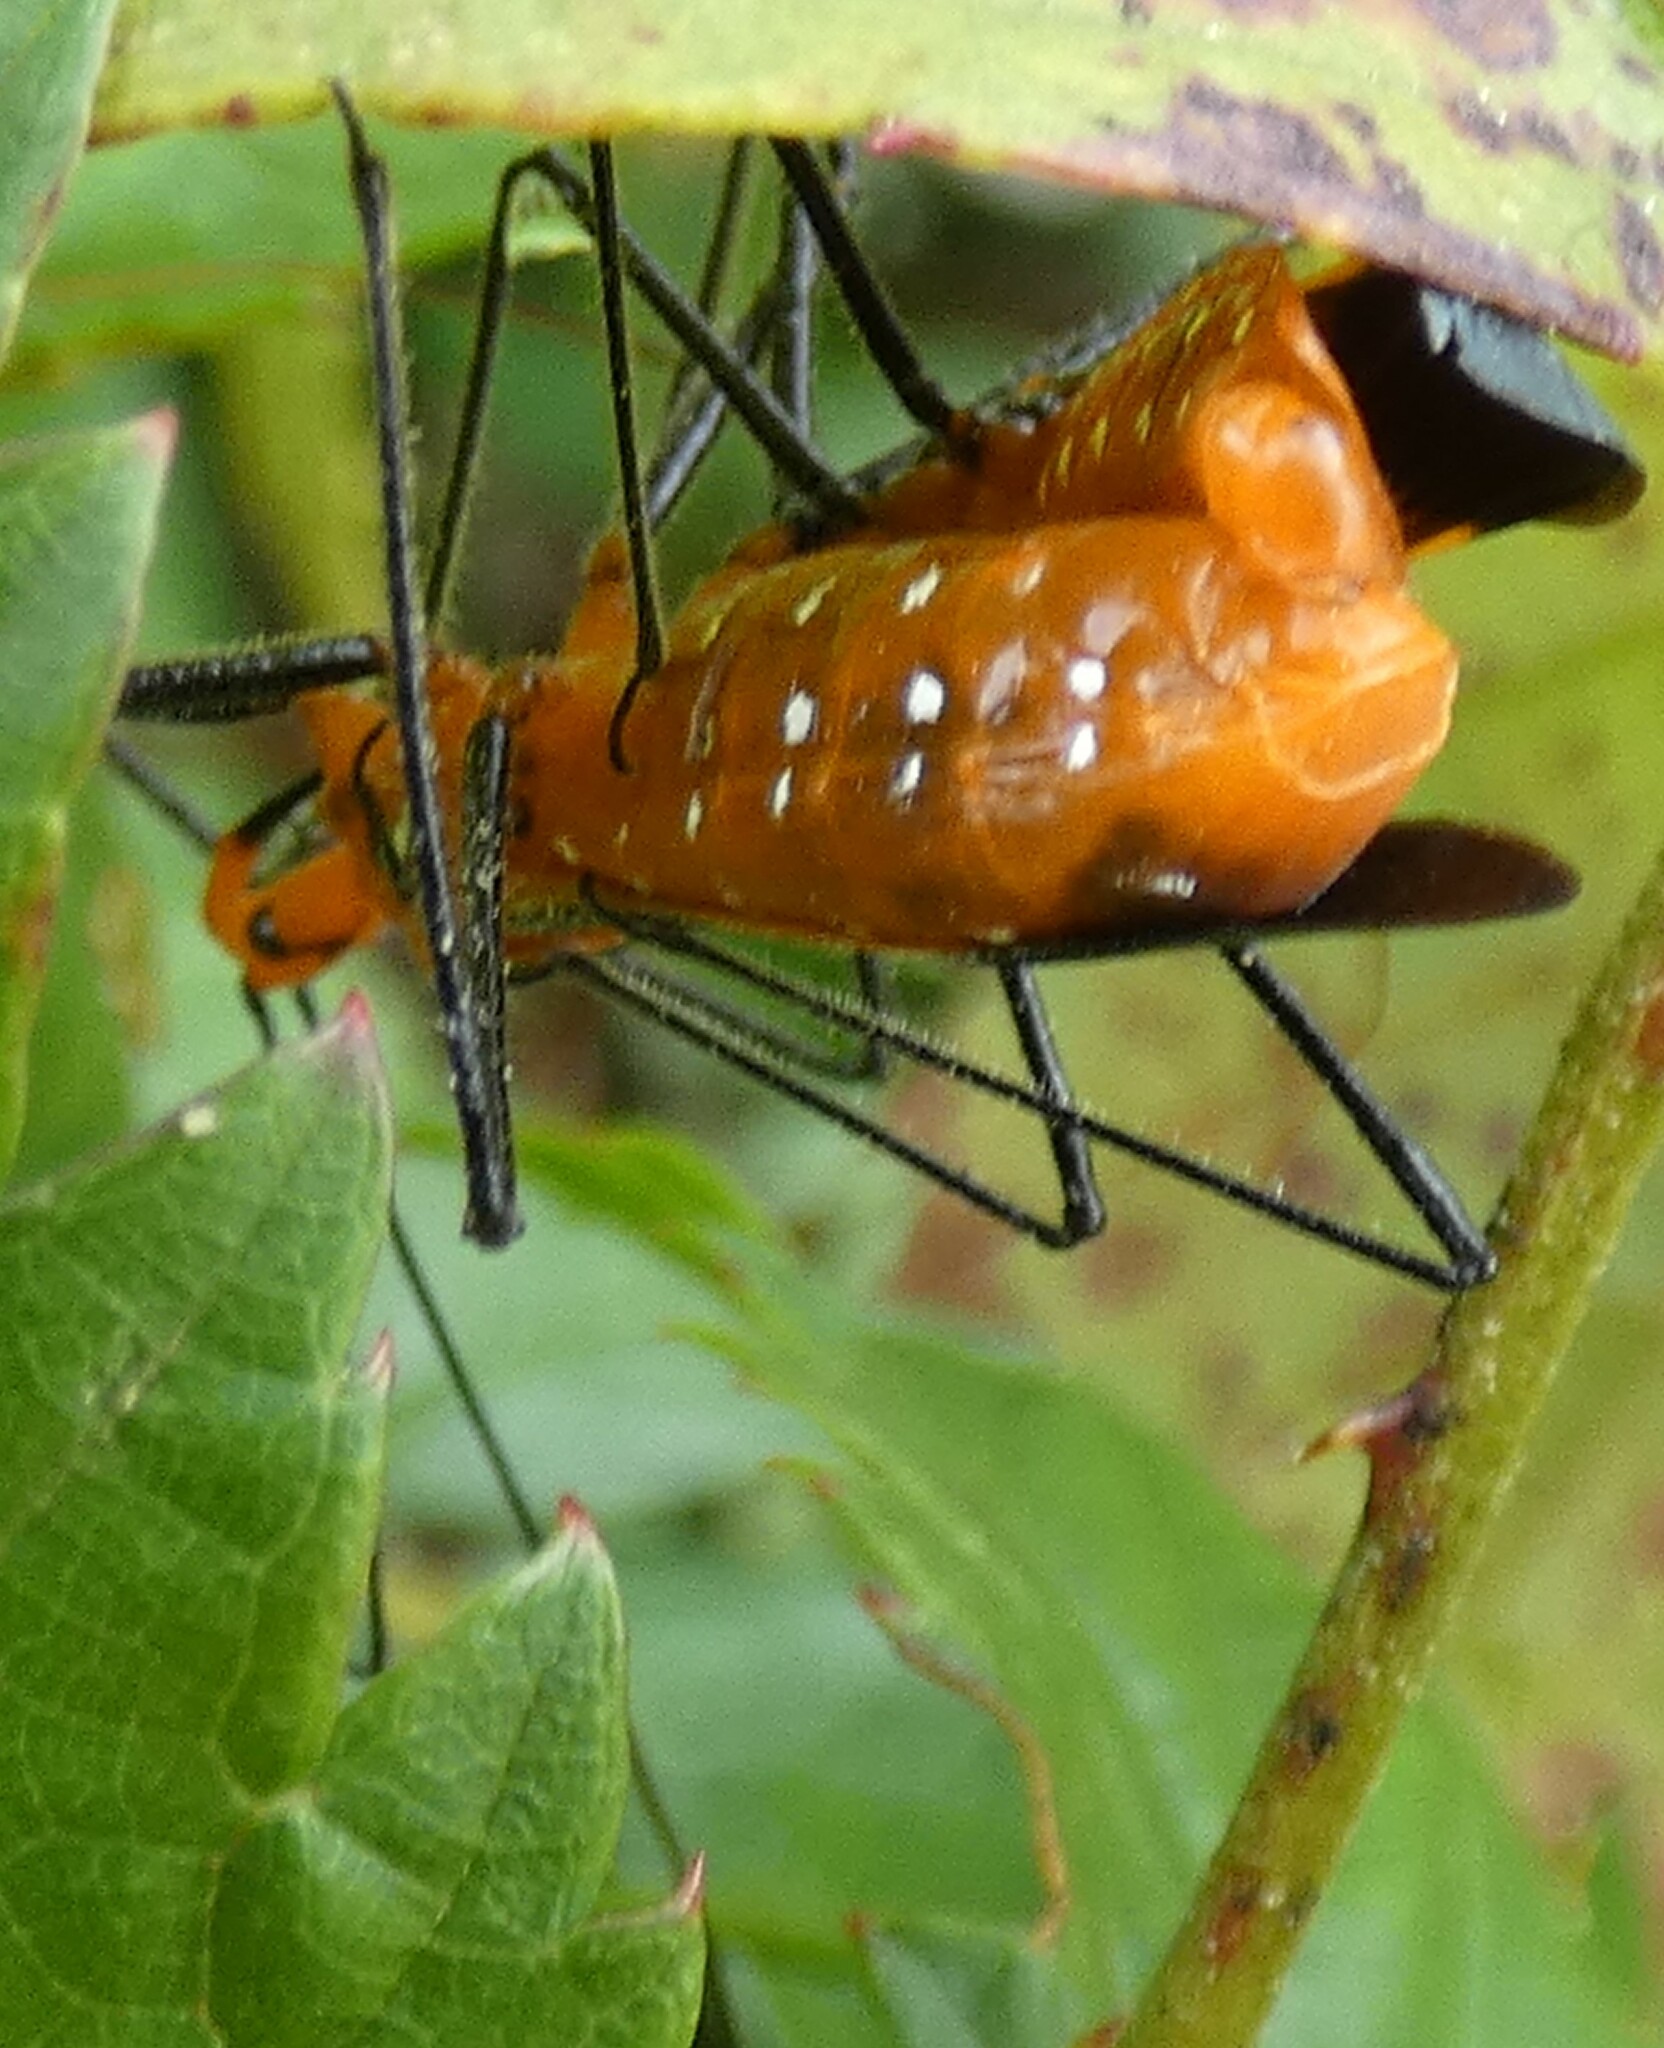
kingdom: Animalia
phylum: Arthropoda
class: Insecta
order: Hemiptera
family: Reduviidae
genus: Zelus
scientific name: Zelus longipes
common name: Milkweed assassin bug
